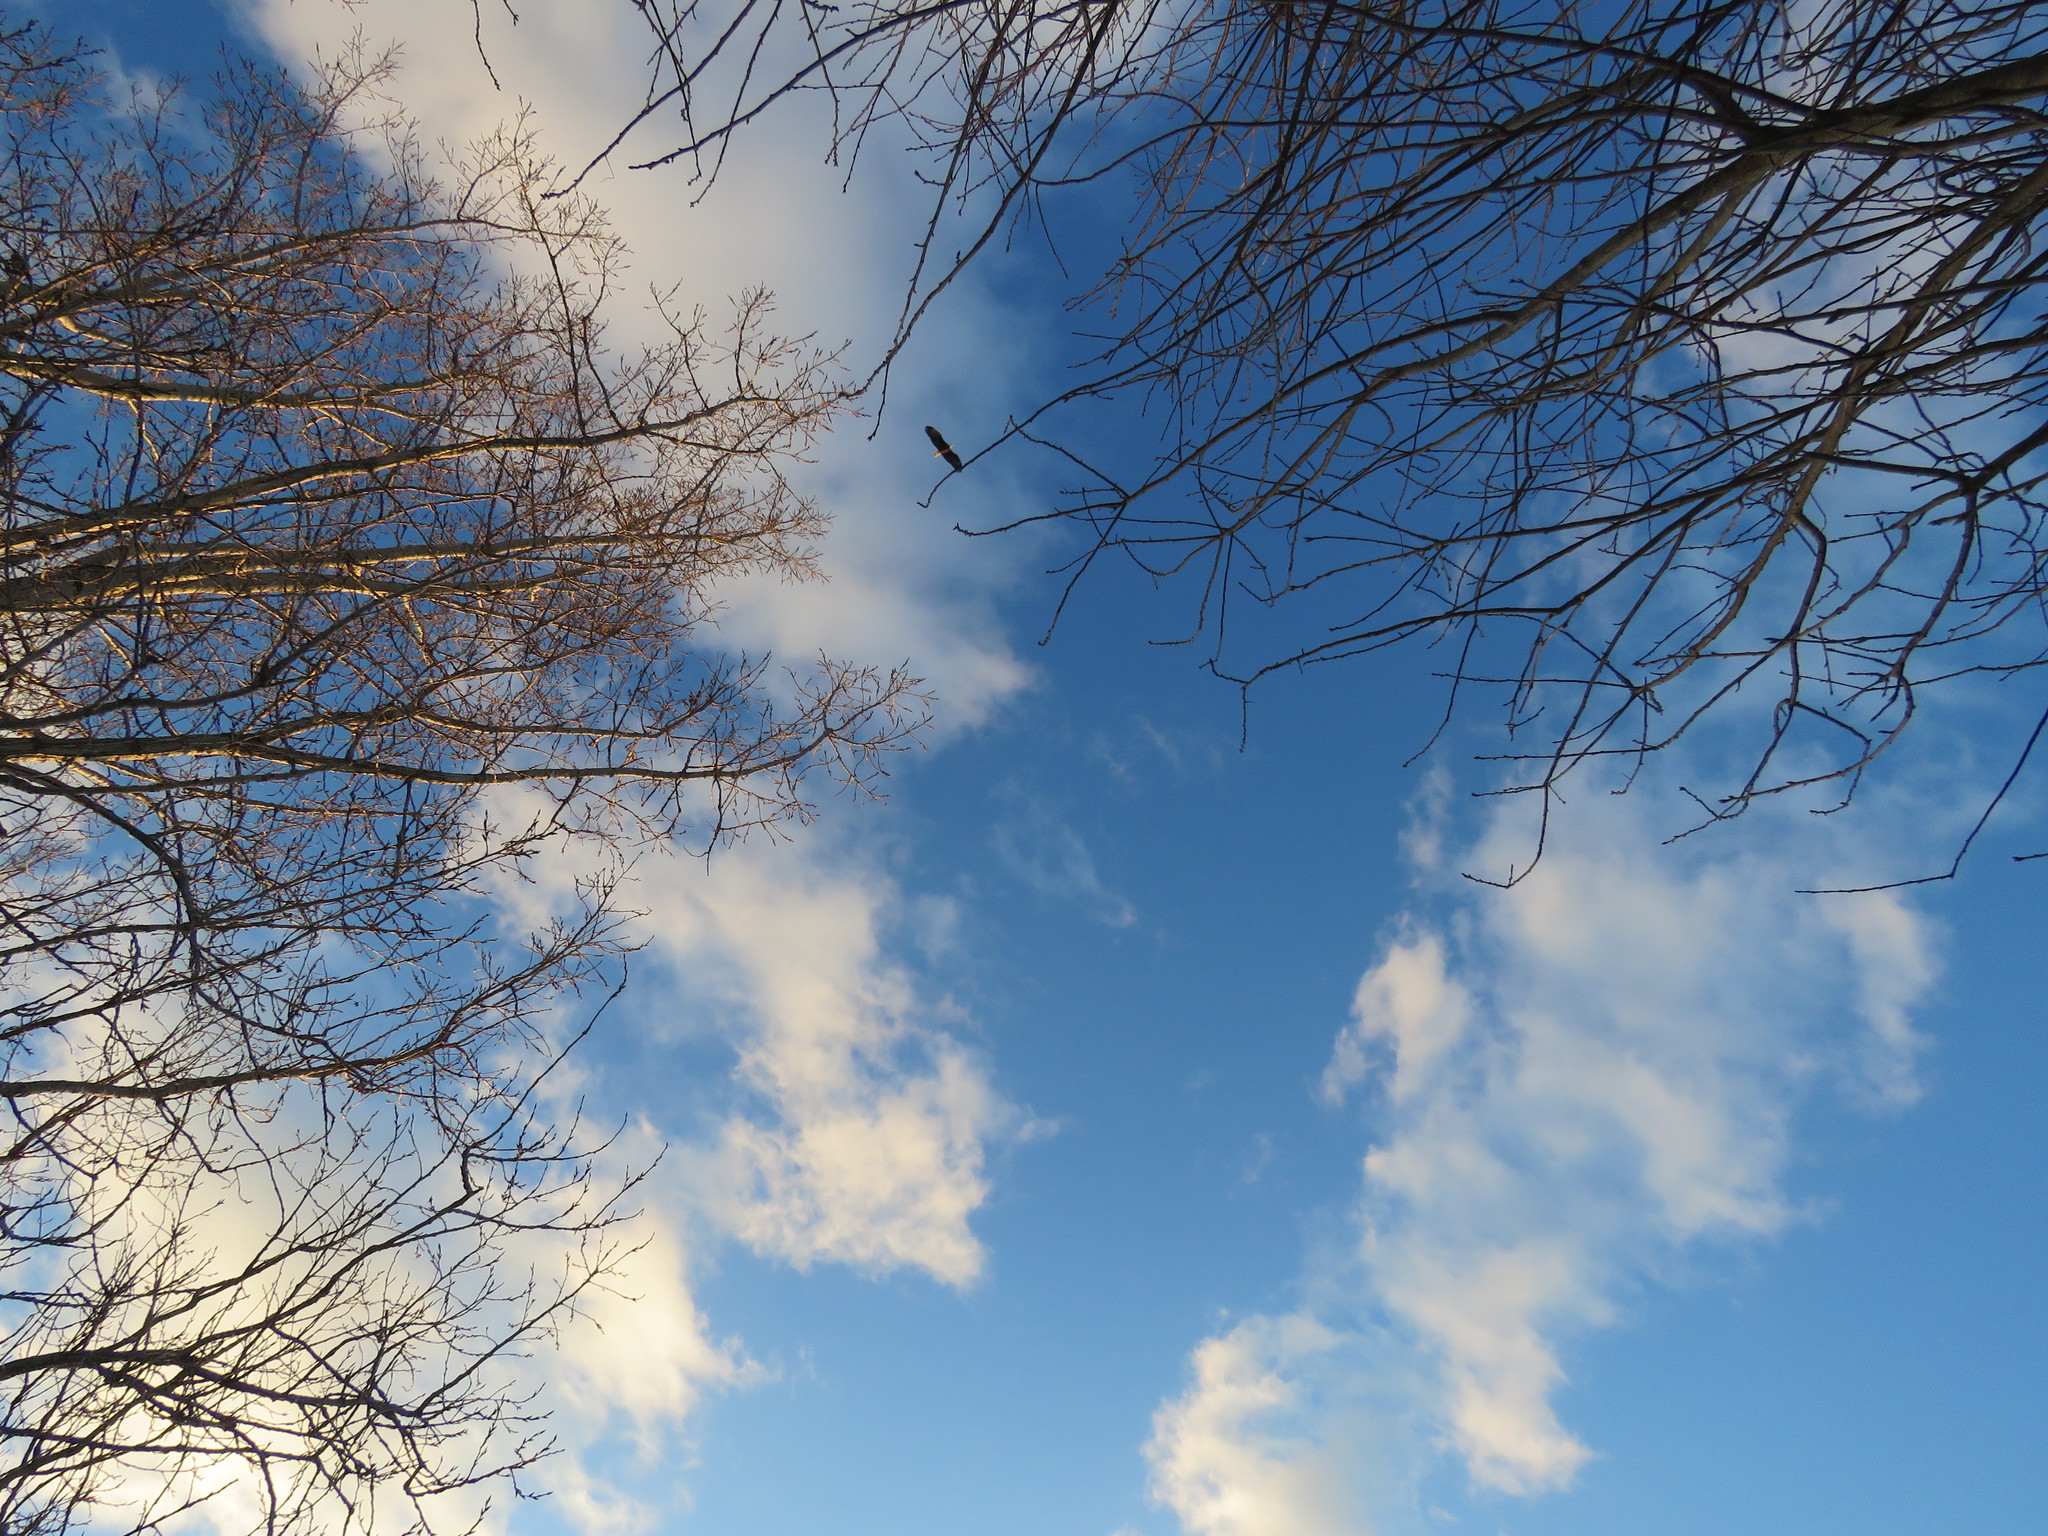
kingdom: Animalia
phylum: Chordata
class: Aves
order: Accipitriformes
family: Accipitridae
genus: Haliaeetus
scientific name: Haliaeetus leucocephalus
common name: Bald eagle
